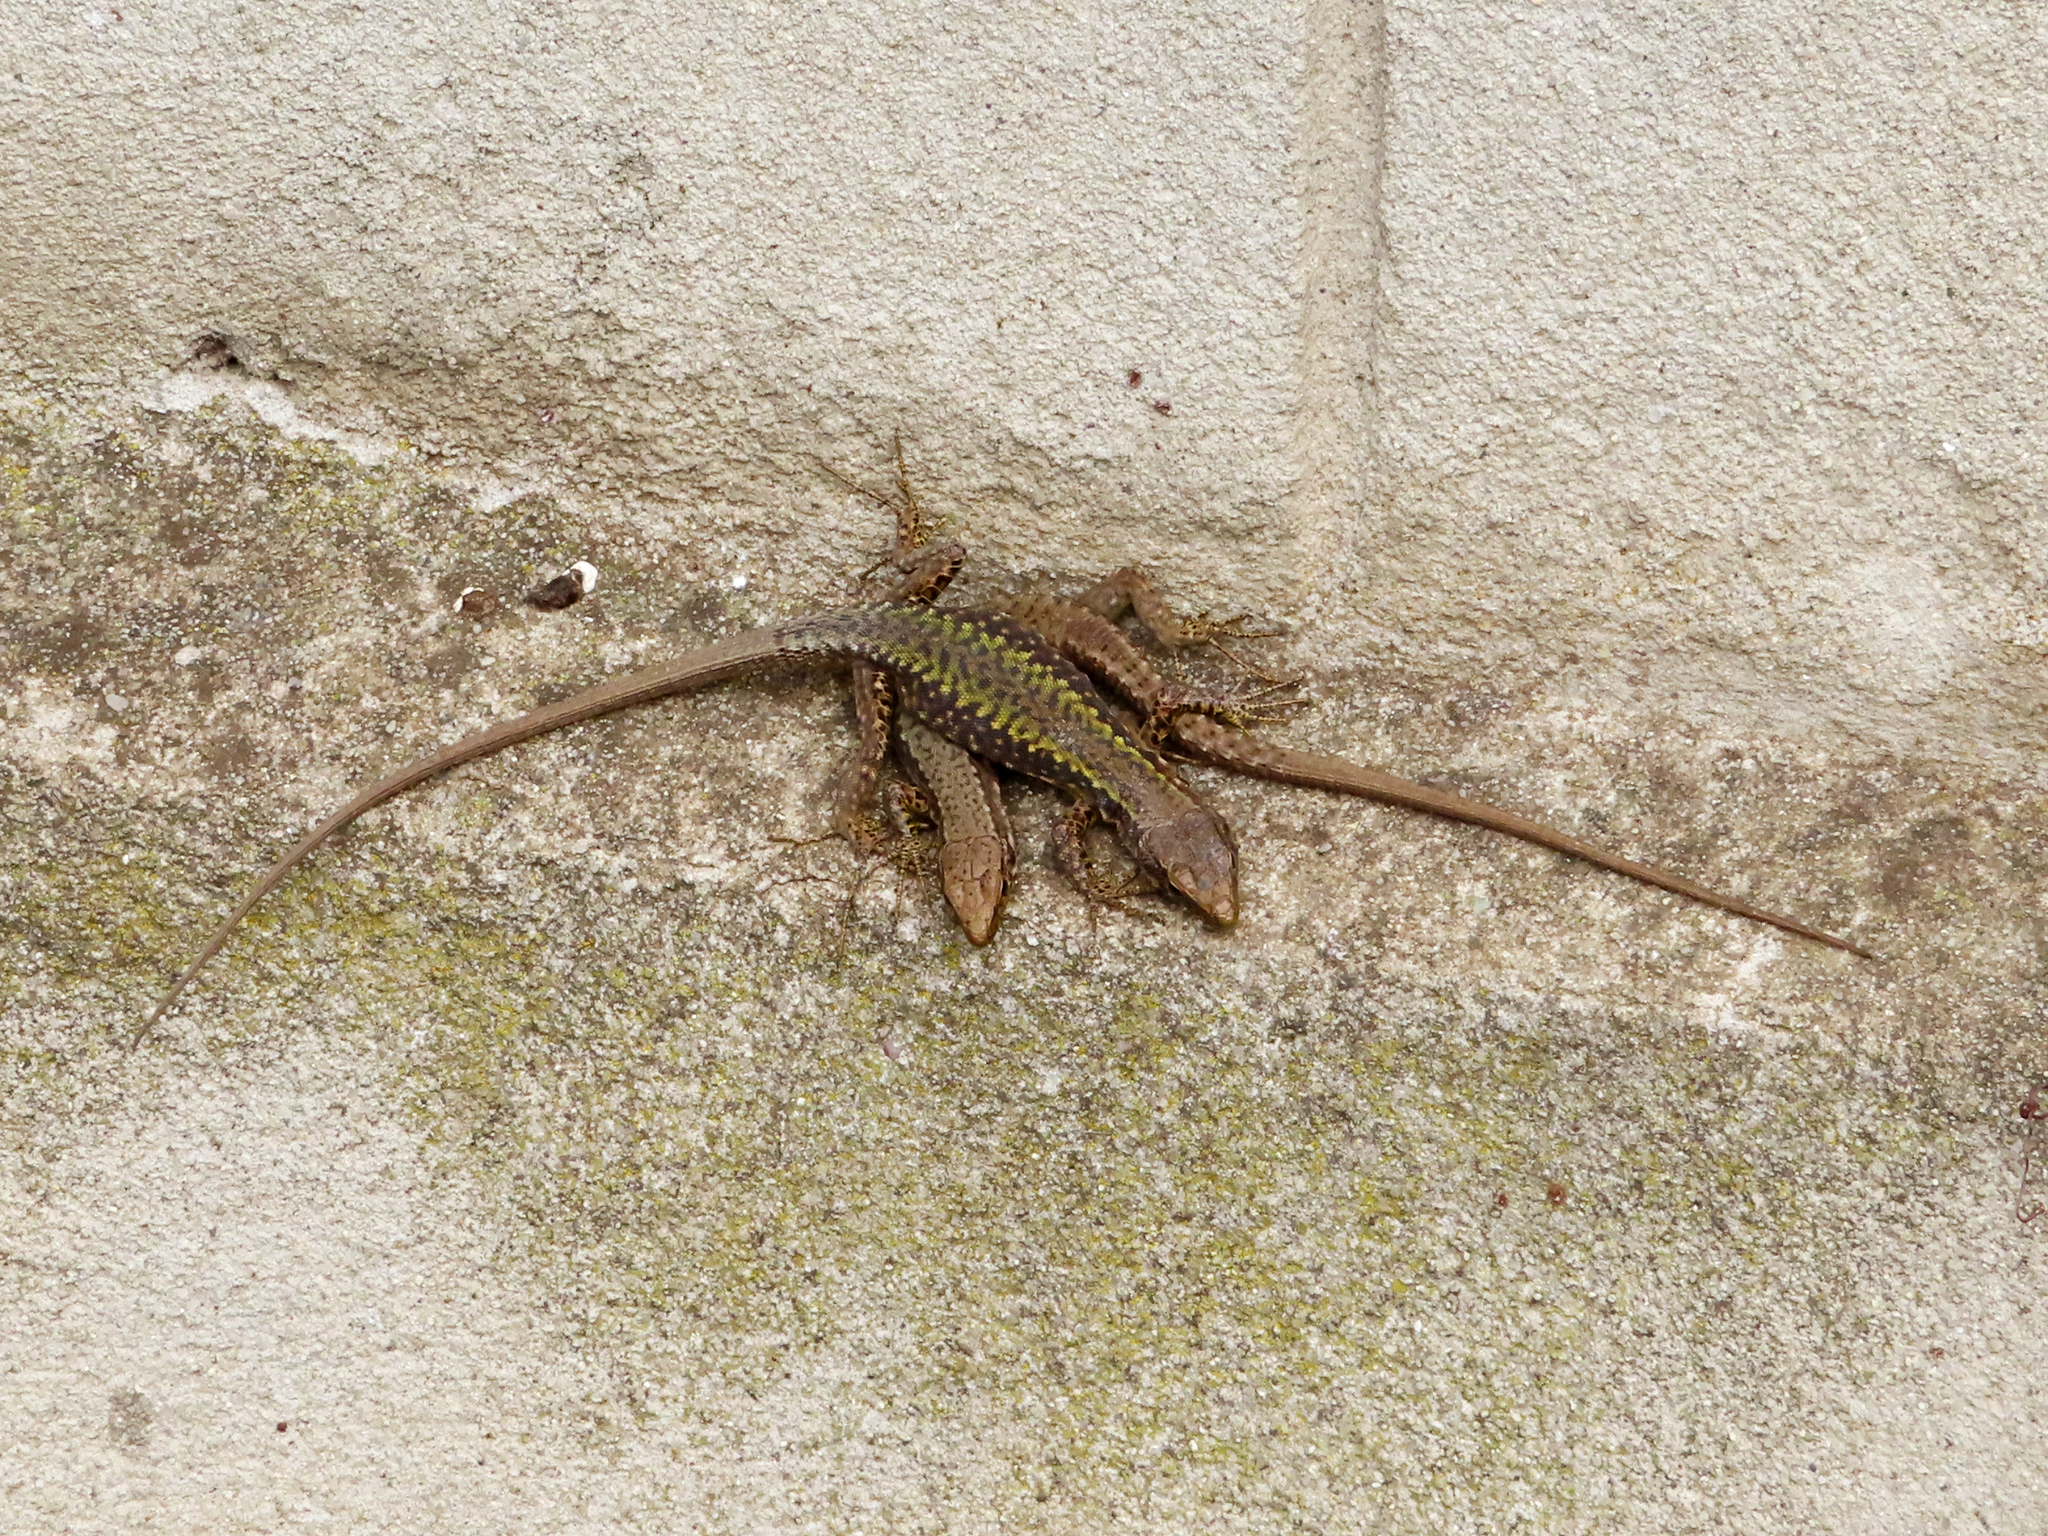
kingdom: Animalia
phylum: Chordata
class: Squamata
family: Lacertidae
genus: Darevskia
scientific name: Darevskia mixta
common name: Ajarian lizard
